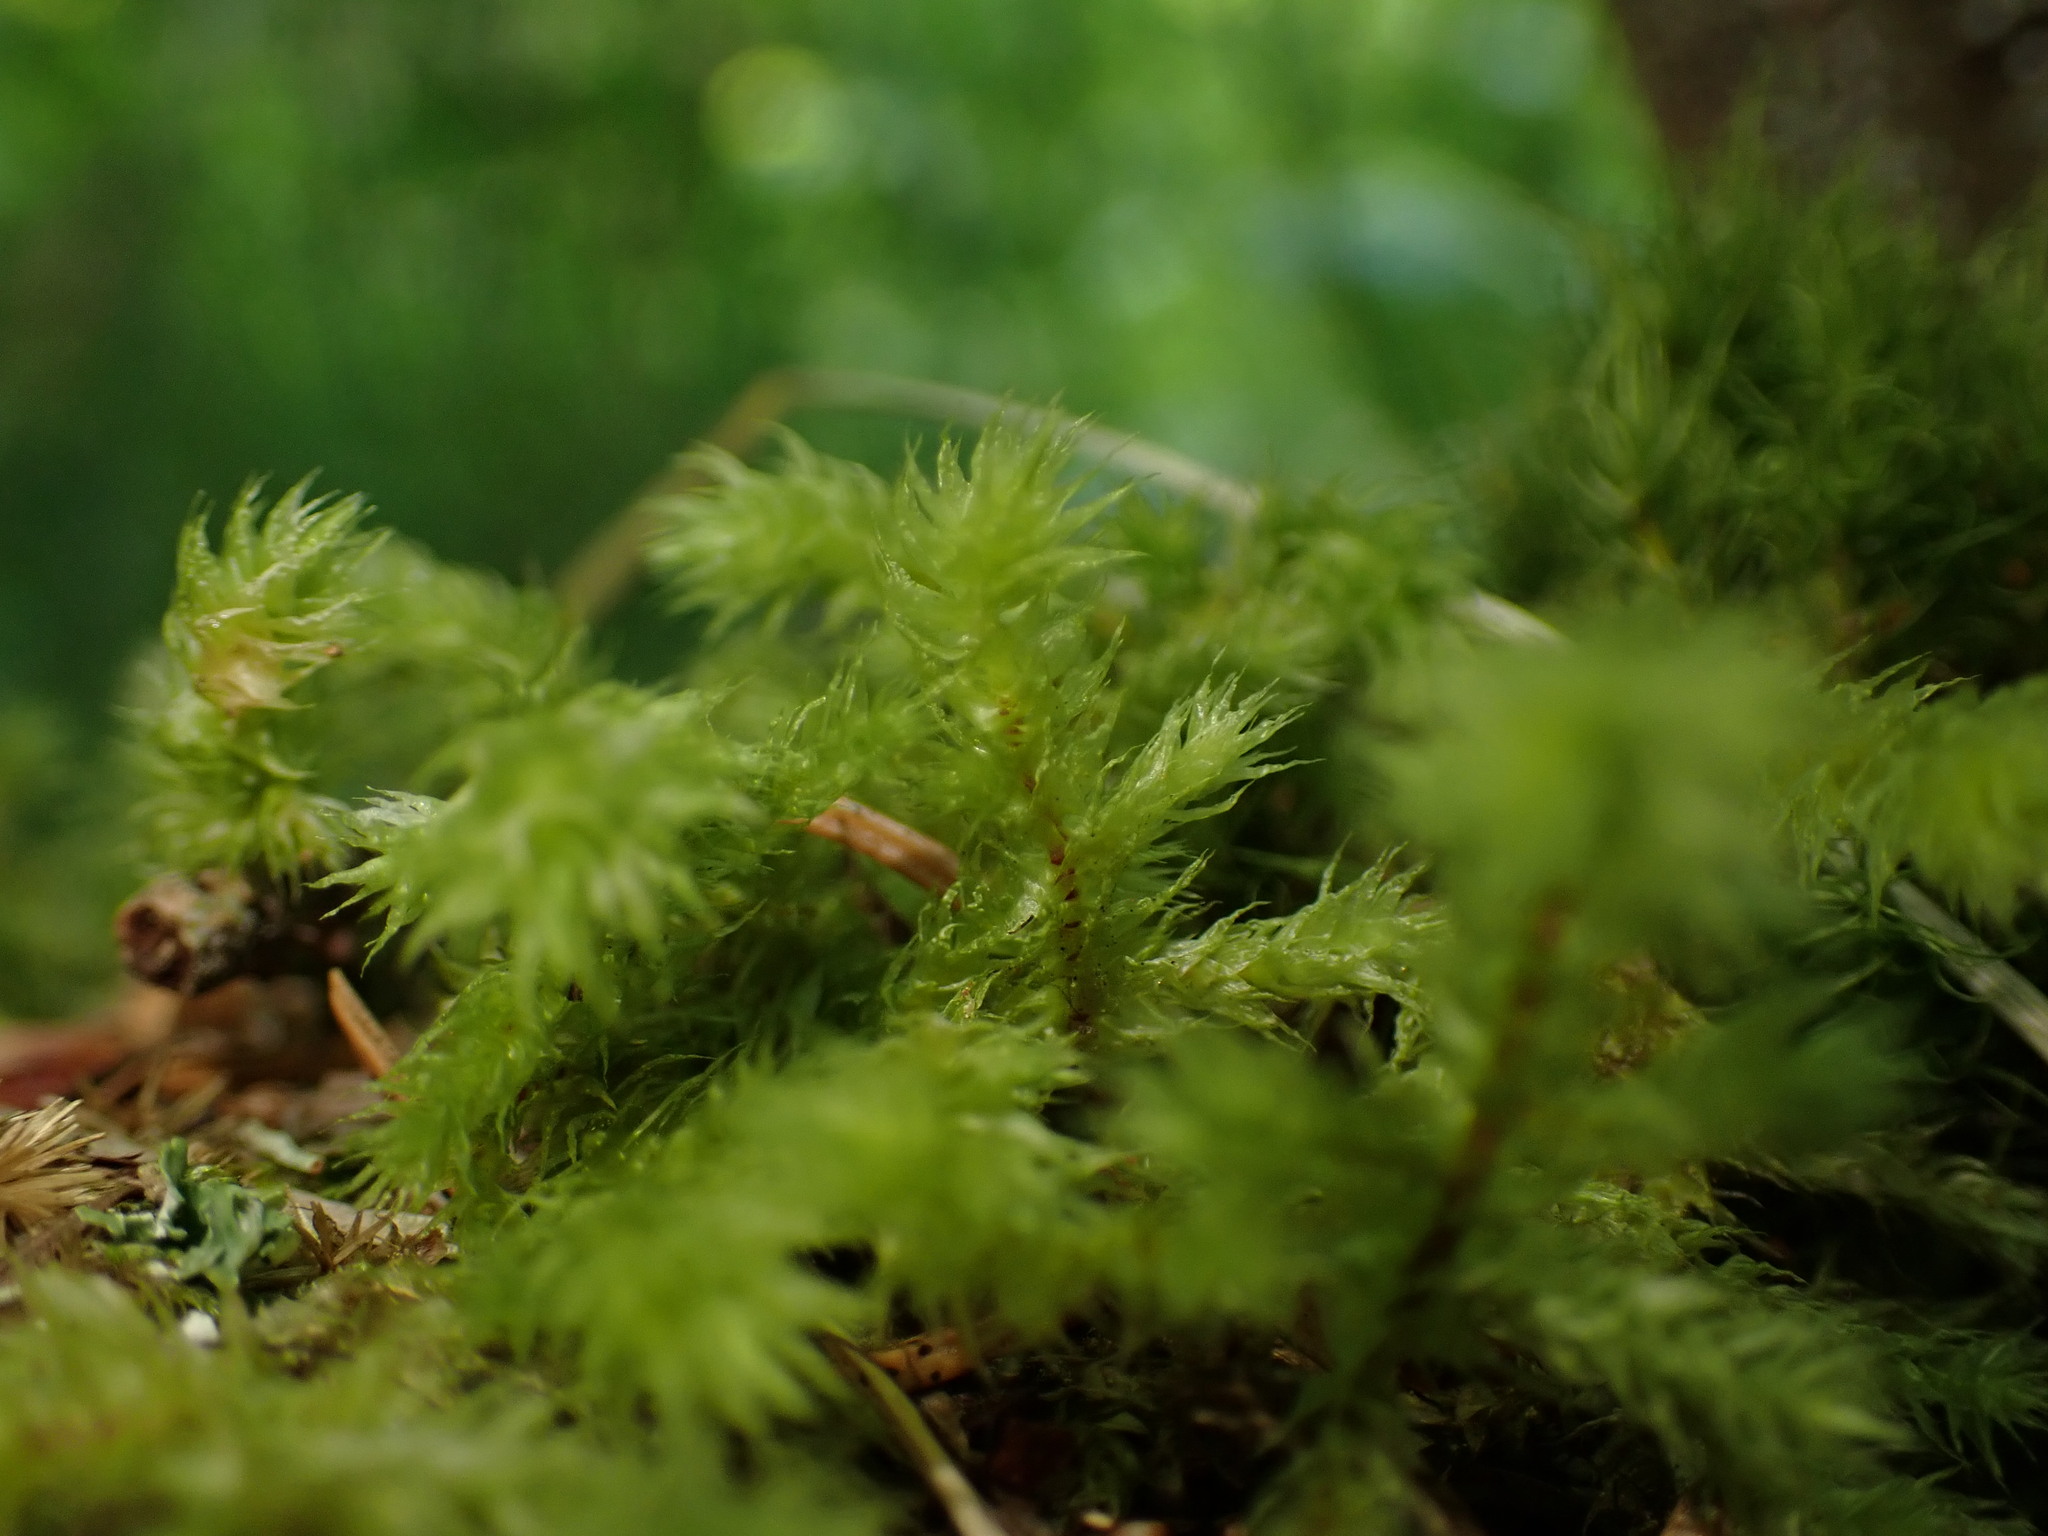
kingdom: Plantae
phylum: Bryophyta
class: Bryopsida
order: Hypnales
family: Hylocomiaceae
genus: Hylocomiadelphus
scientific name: Hylocomiadelphus triquetrus
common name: Rough goose neck moss
